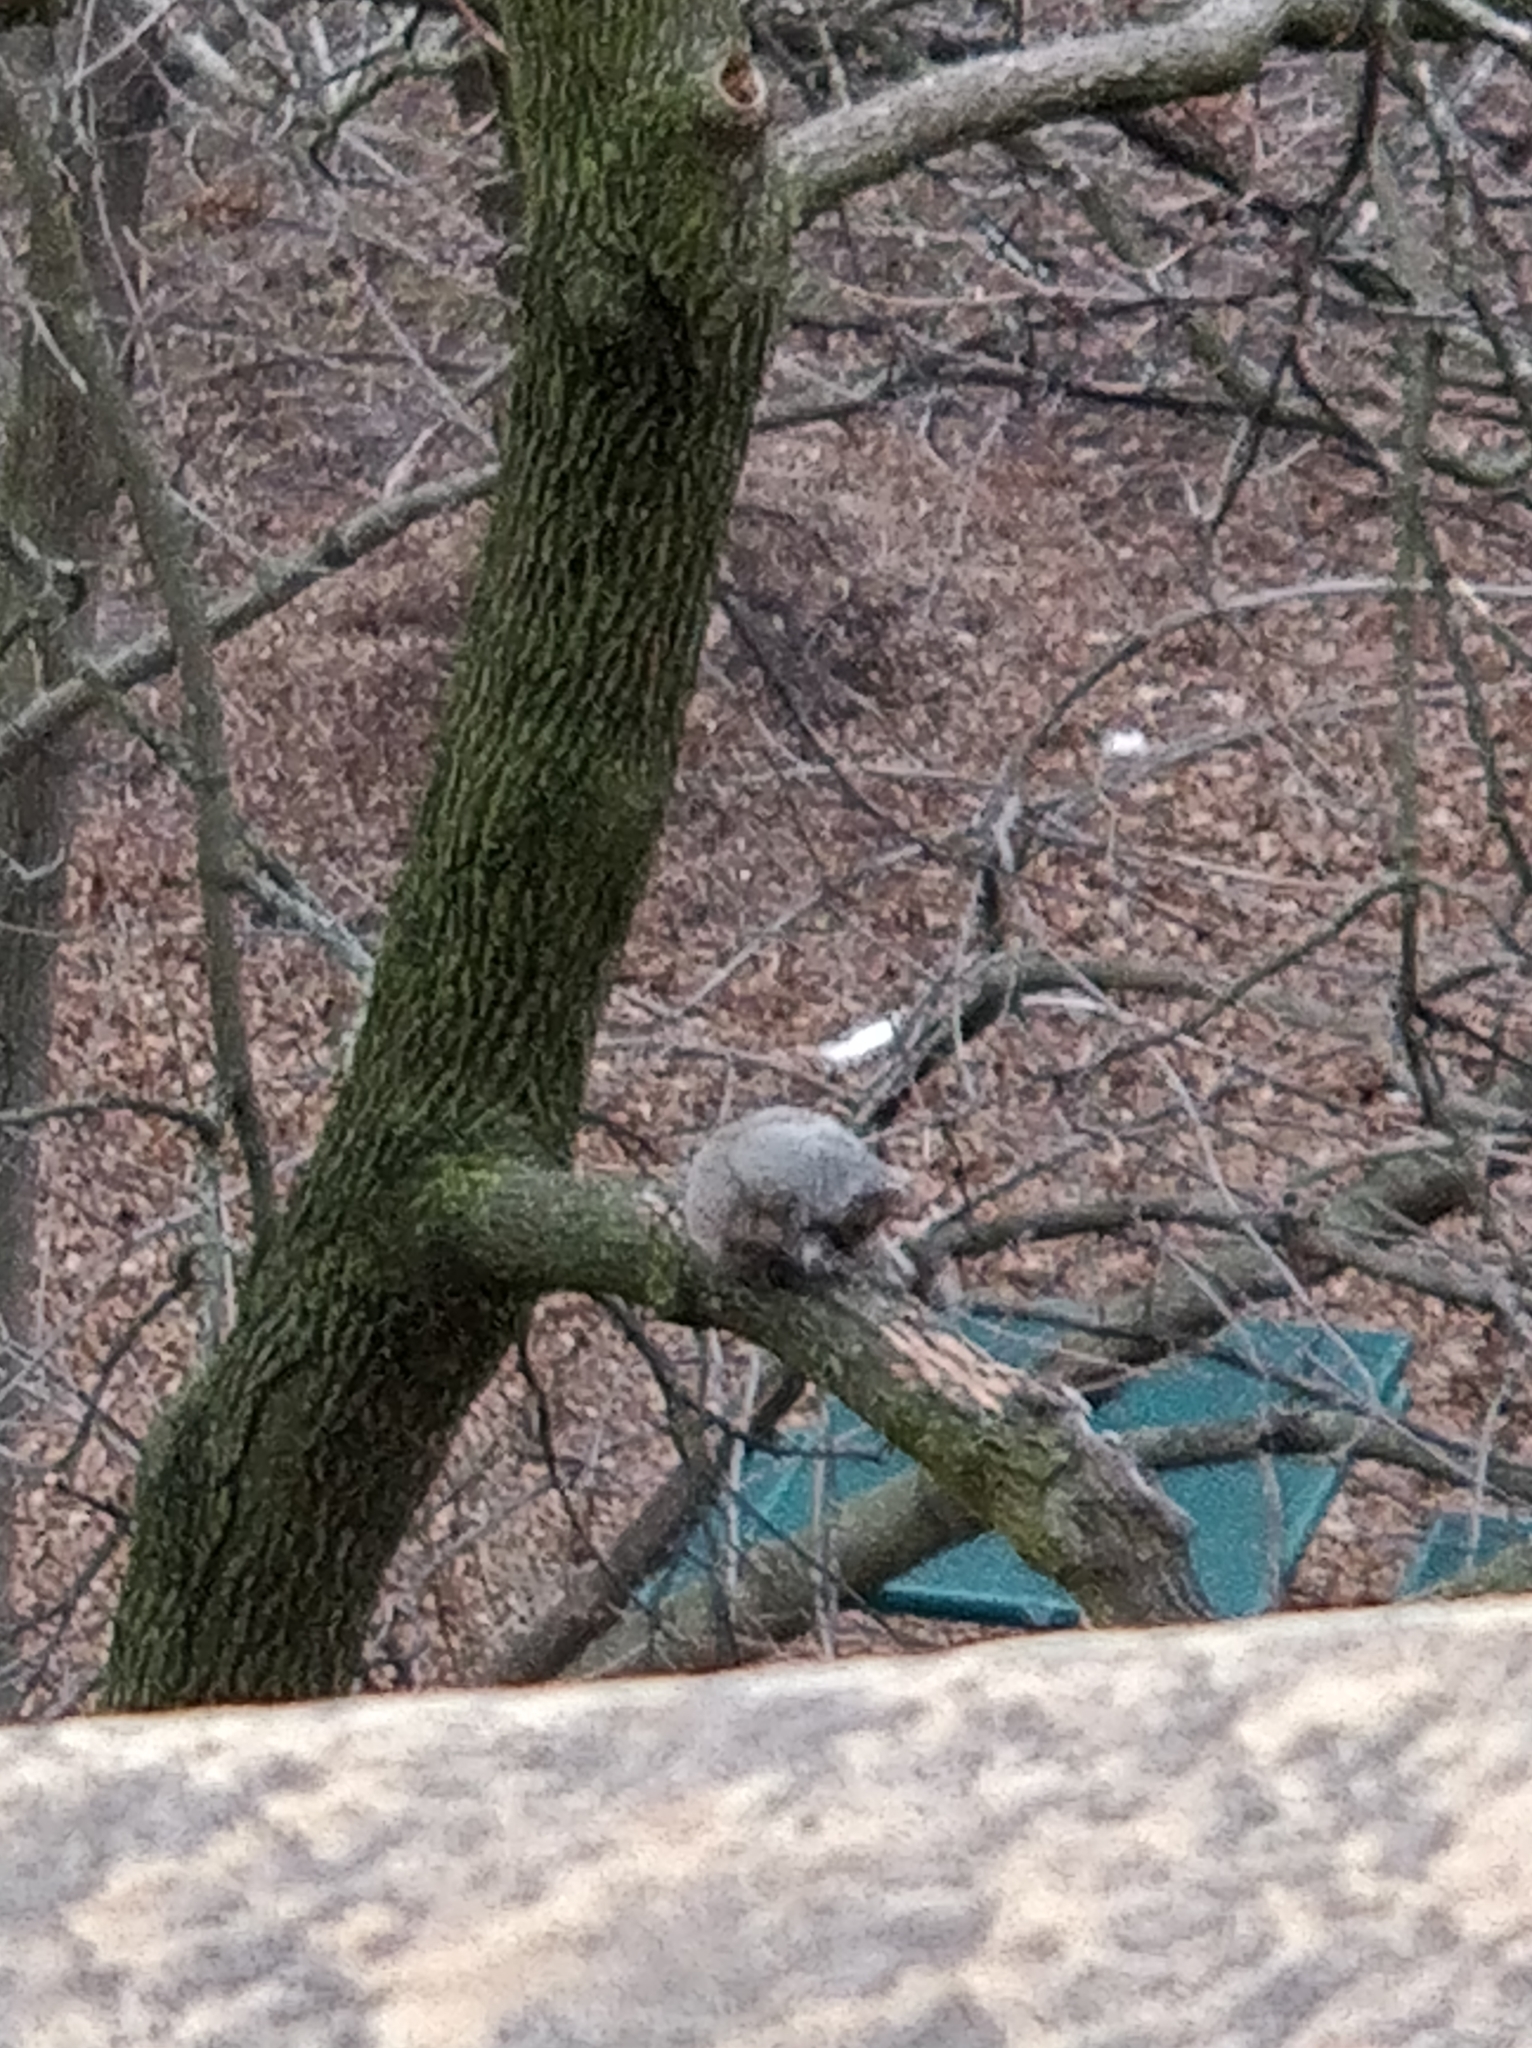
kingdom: Animalia
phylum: Chordata
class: Mammalia
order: Rodentia
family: Sciuridae
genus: Sciurus
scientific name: Sciurus carolinensis
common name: Eastern gray squirrel
